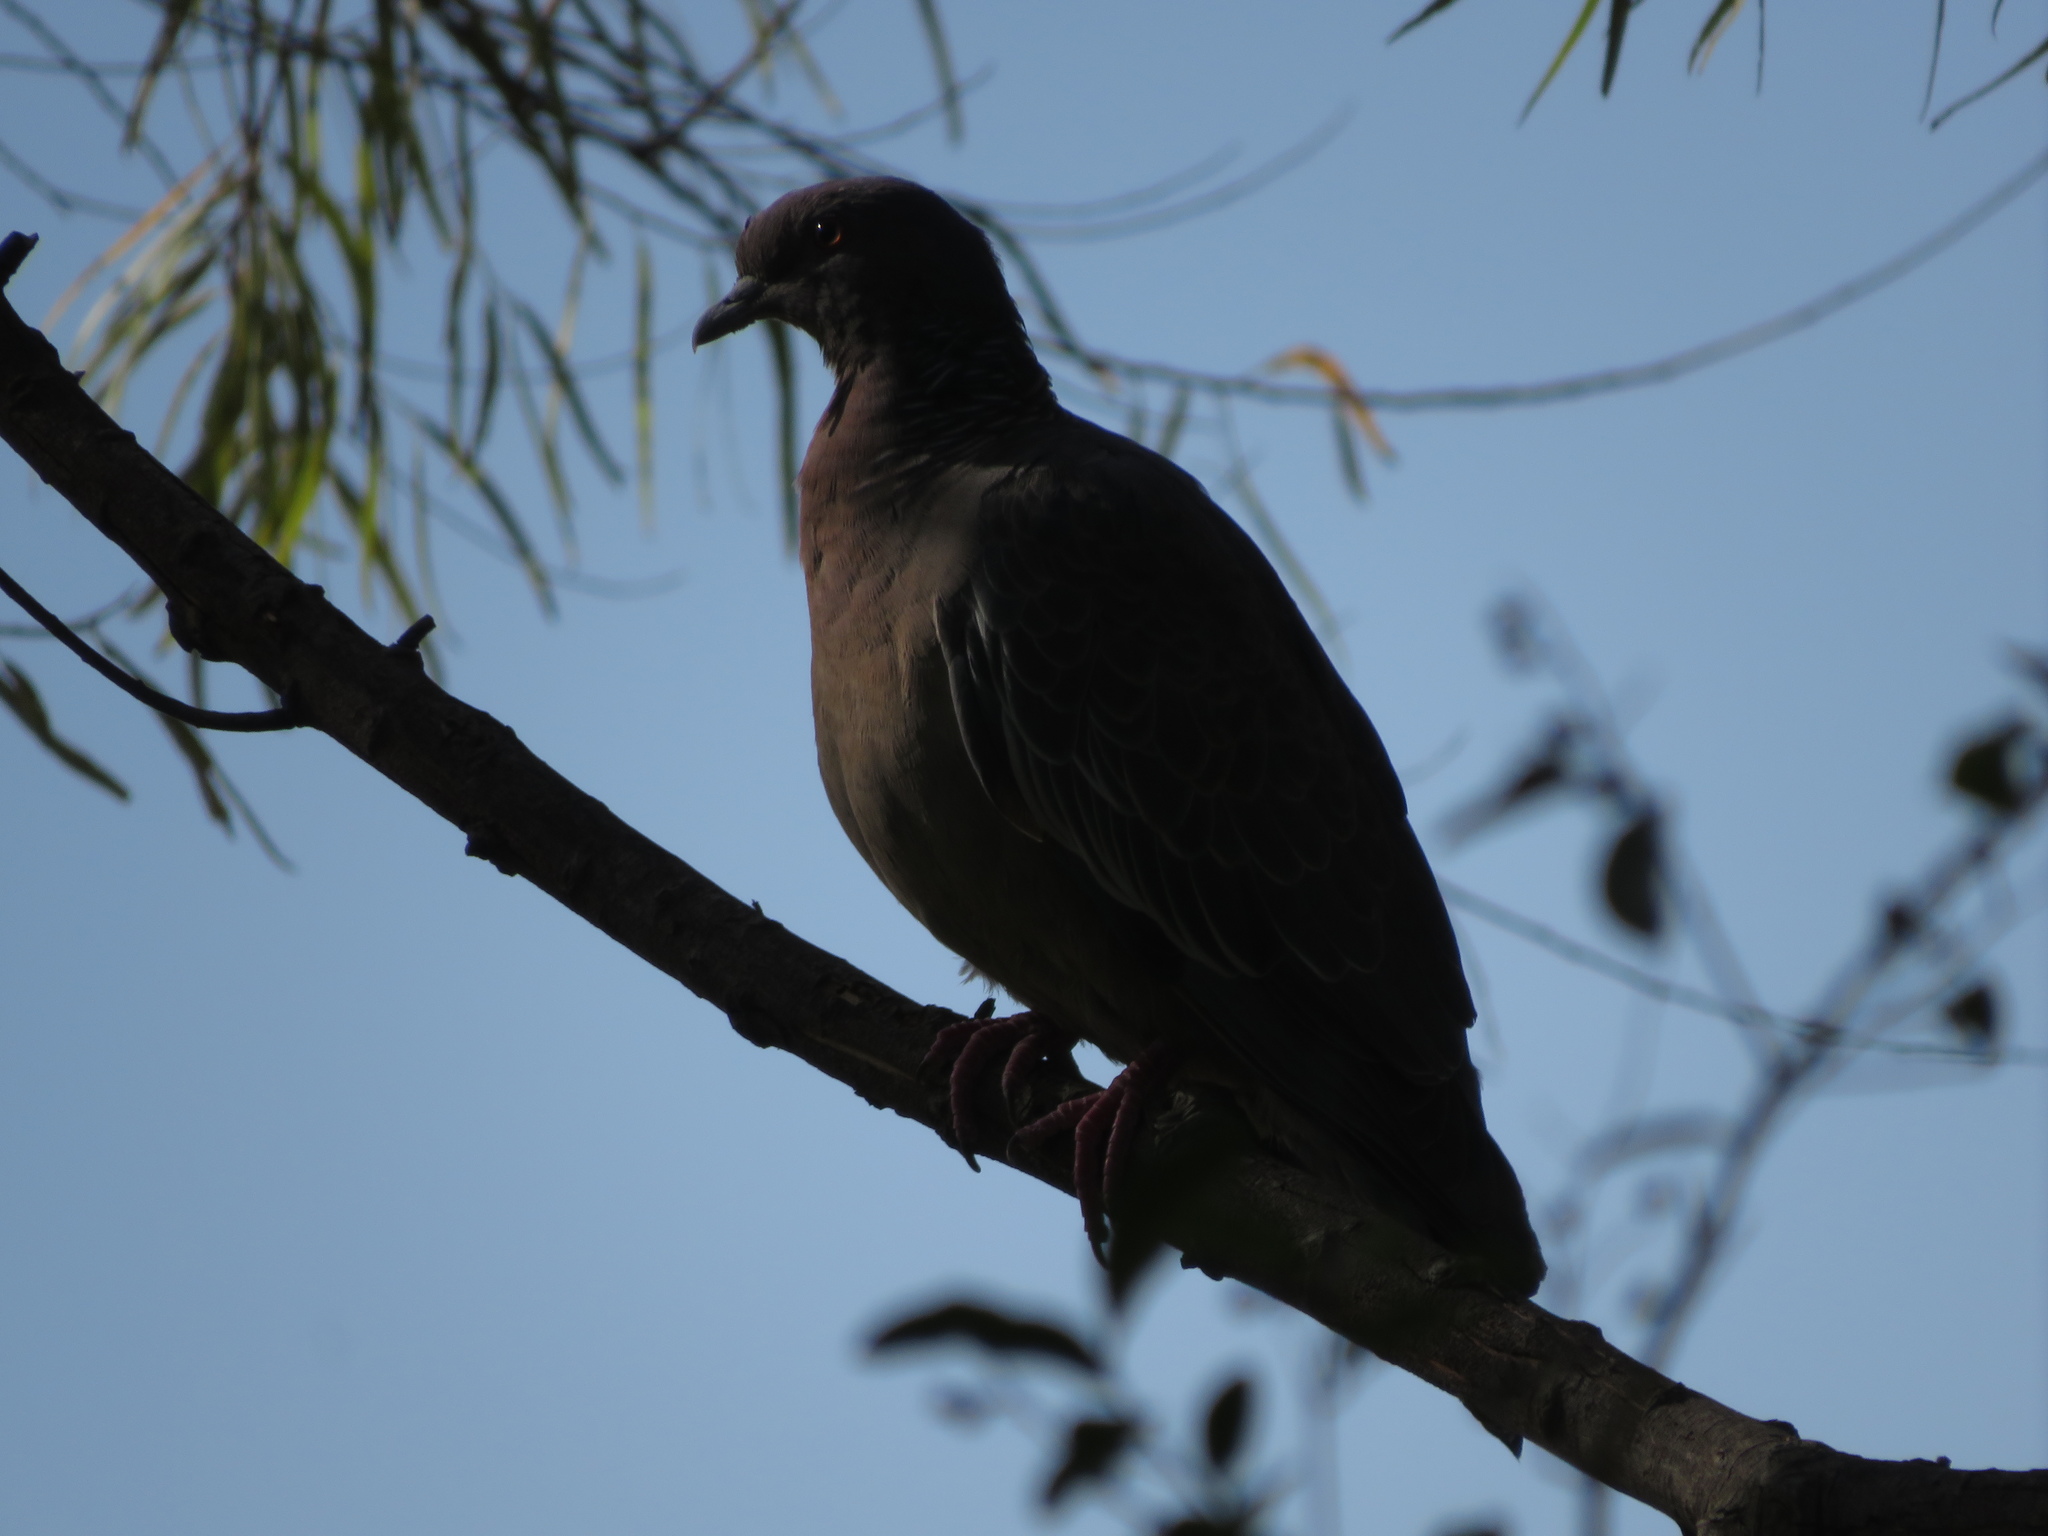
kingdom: Animalia
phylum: Chordata
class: Aves
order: Columbiformes
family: Columbidae
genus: Patagioenas
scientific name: Patagioenas picazuro
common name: Picazuro pigeon
